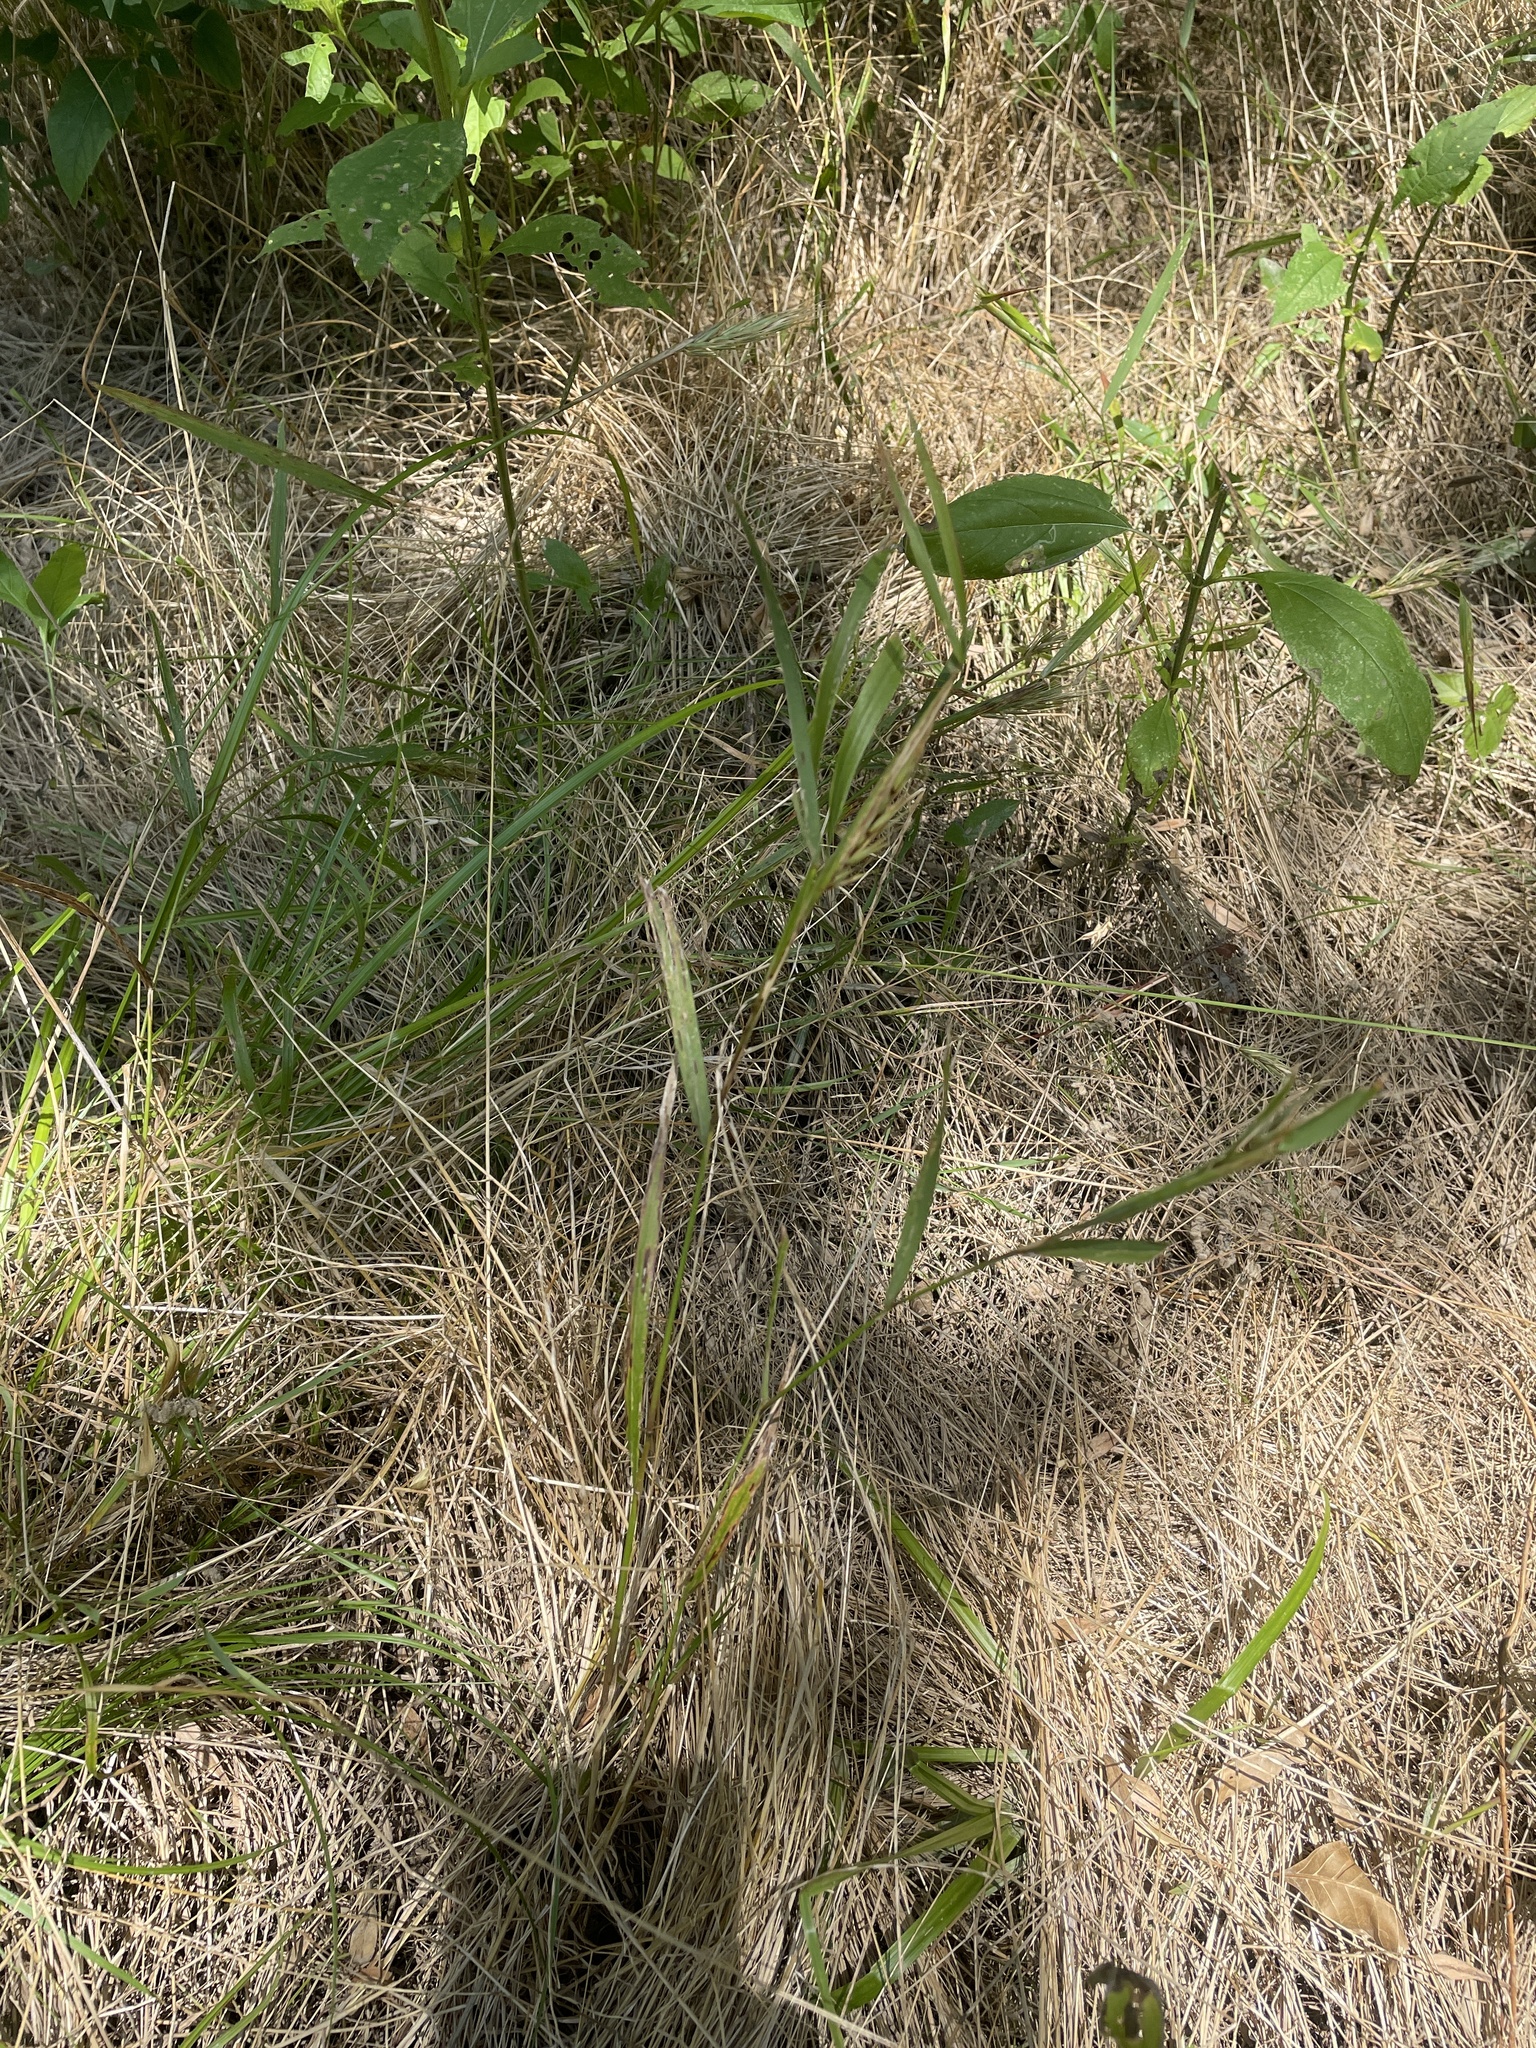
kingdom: Plantae
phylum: Tracheophyta
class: Liliopsida
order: Poales
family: Poaceae
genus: Elymus
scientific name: Elymus virginicus
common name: Common eastern wildrye
